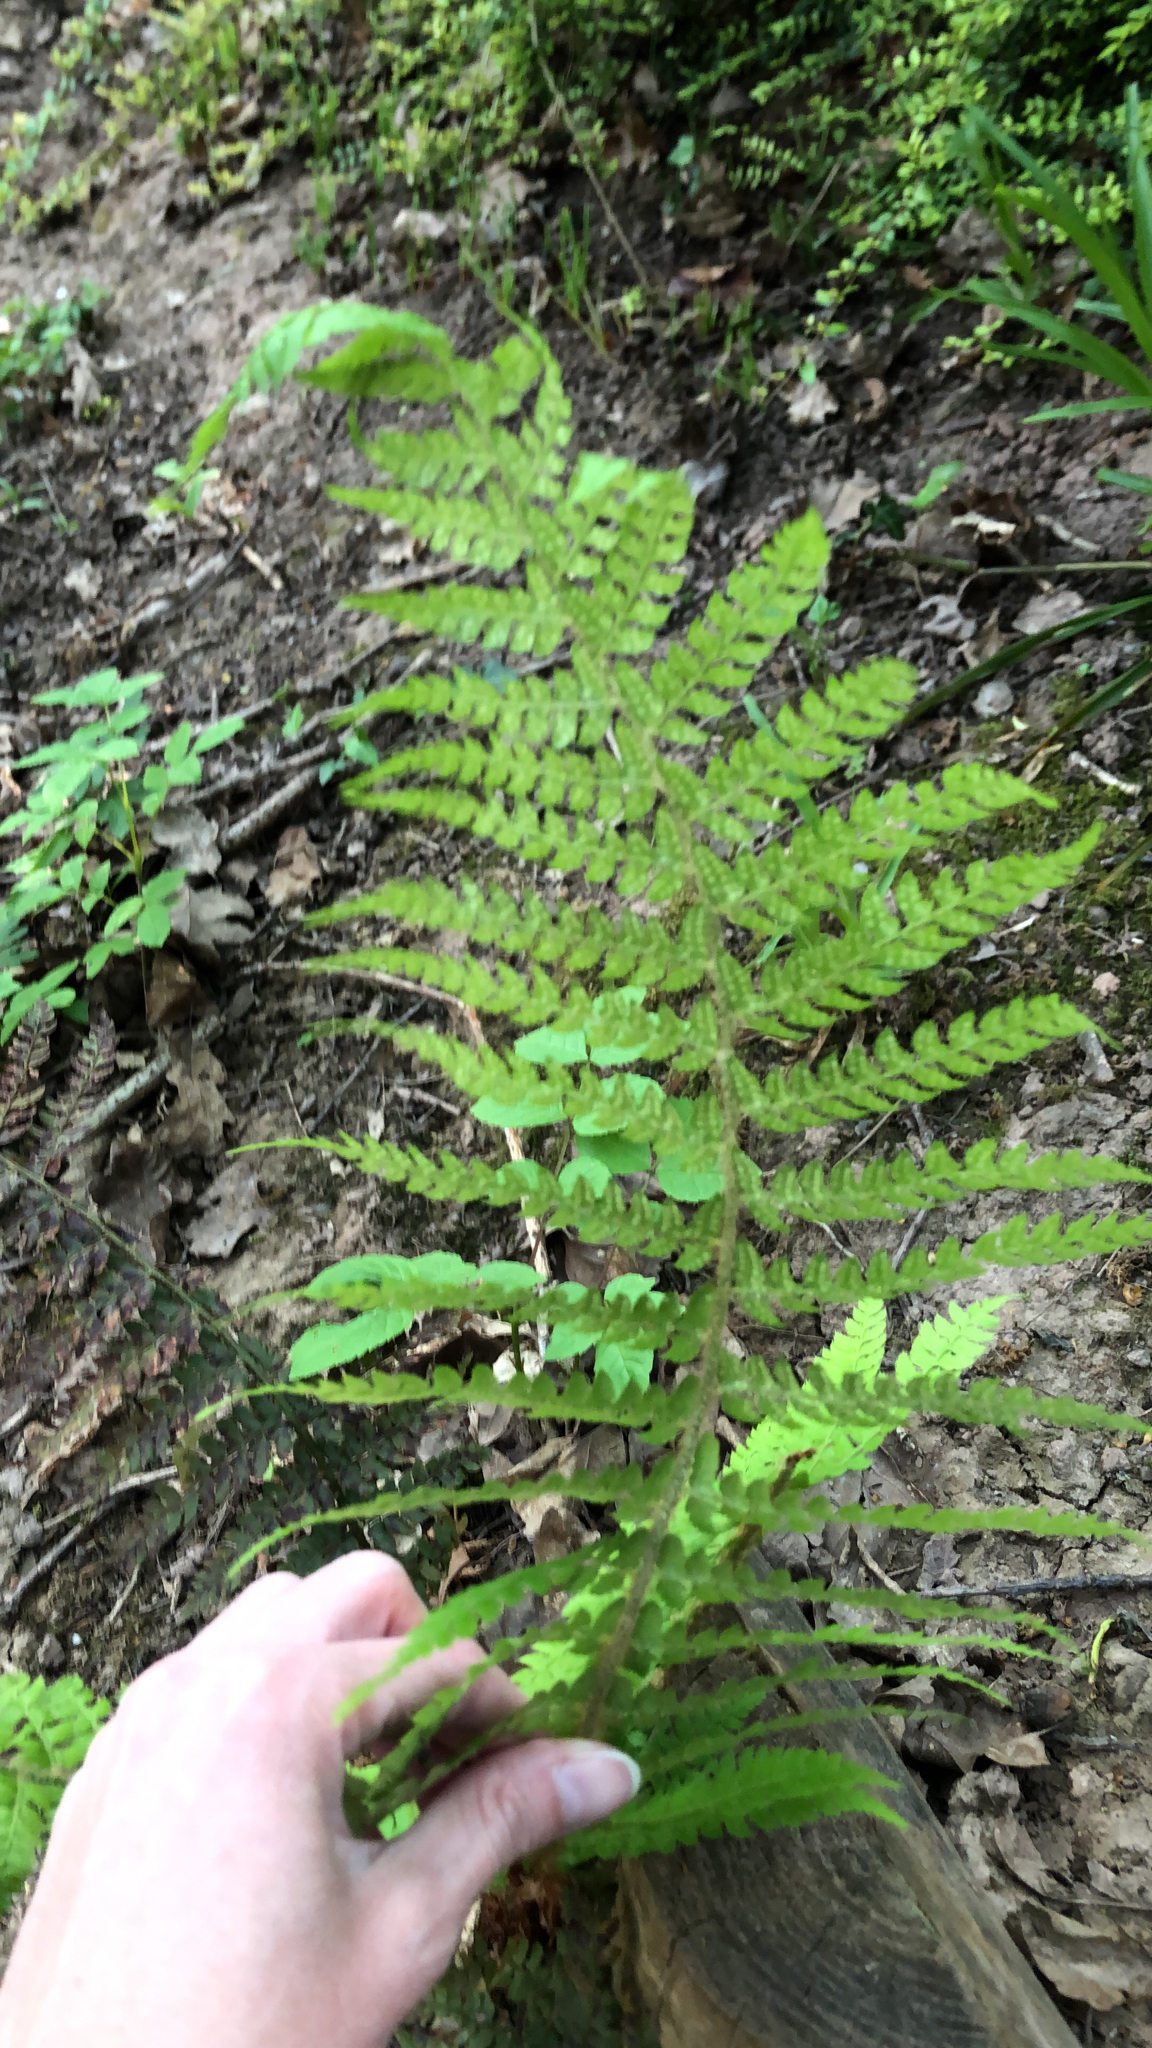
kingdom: Plantae
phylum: Tracheophyta
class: Polypodiopsida
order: Polypodiales
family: Dryopteridaceae
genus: Polystichum
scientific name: Polystichum setiferum
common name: Soft shield-fern
